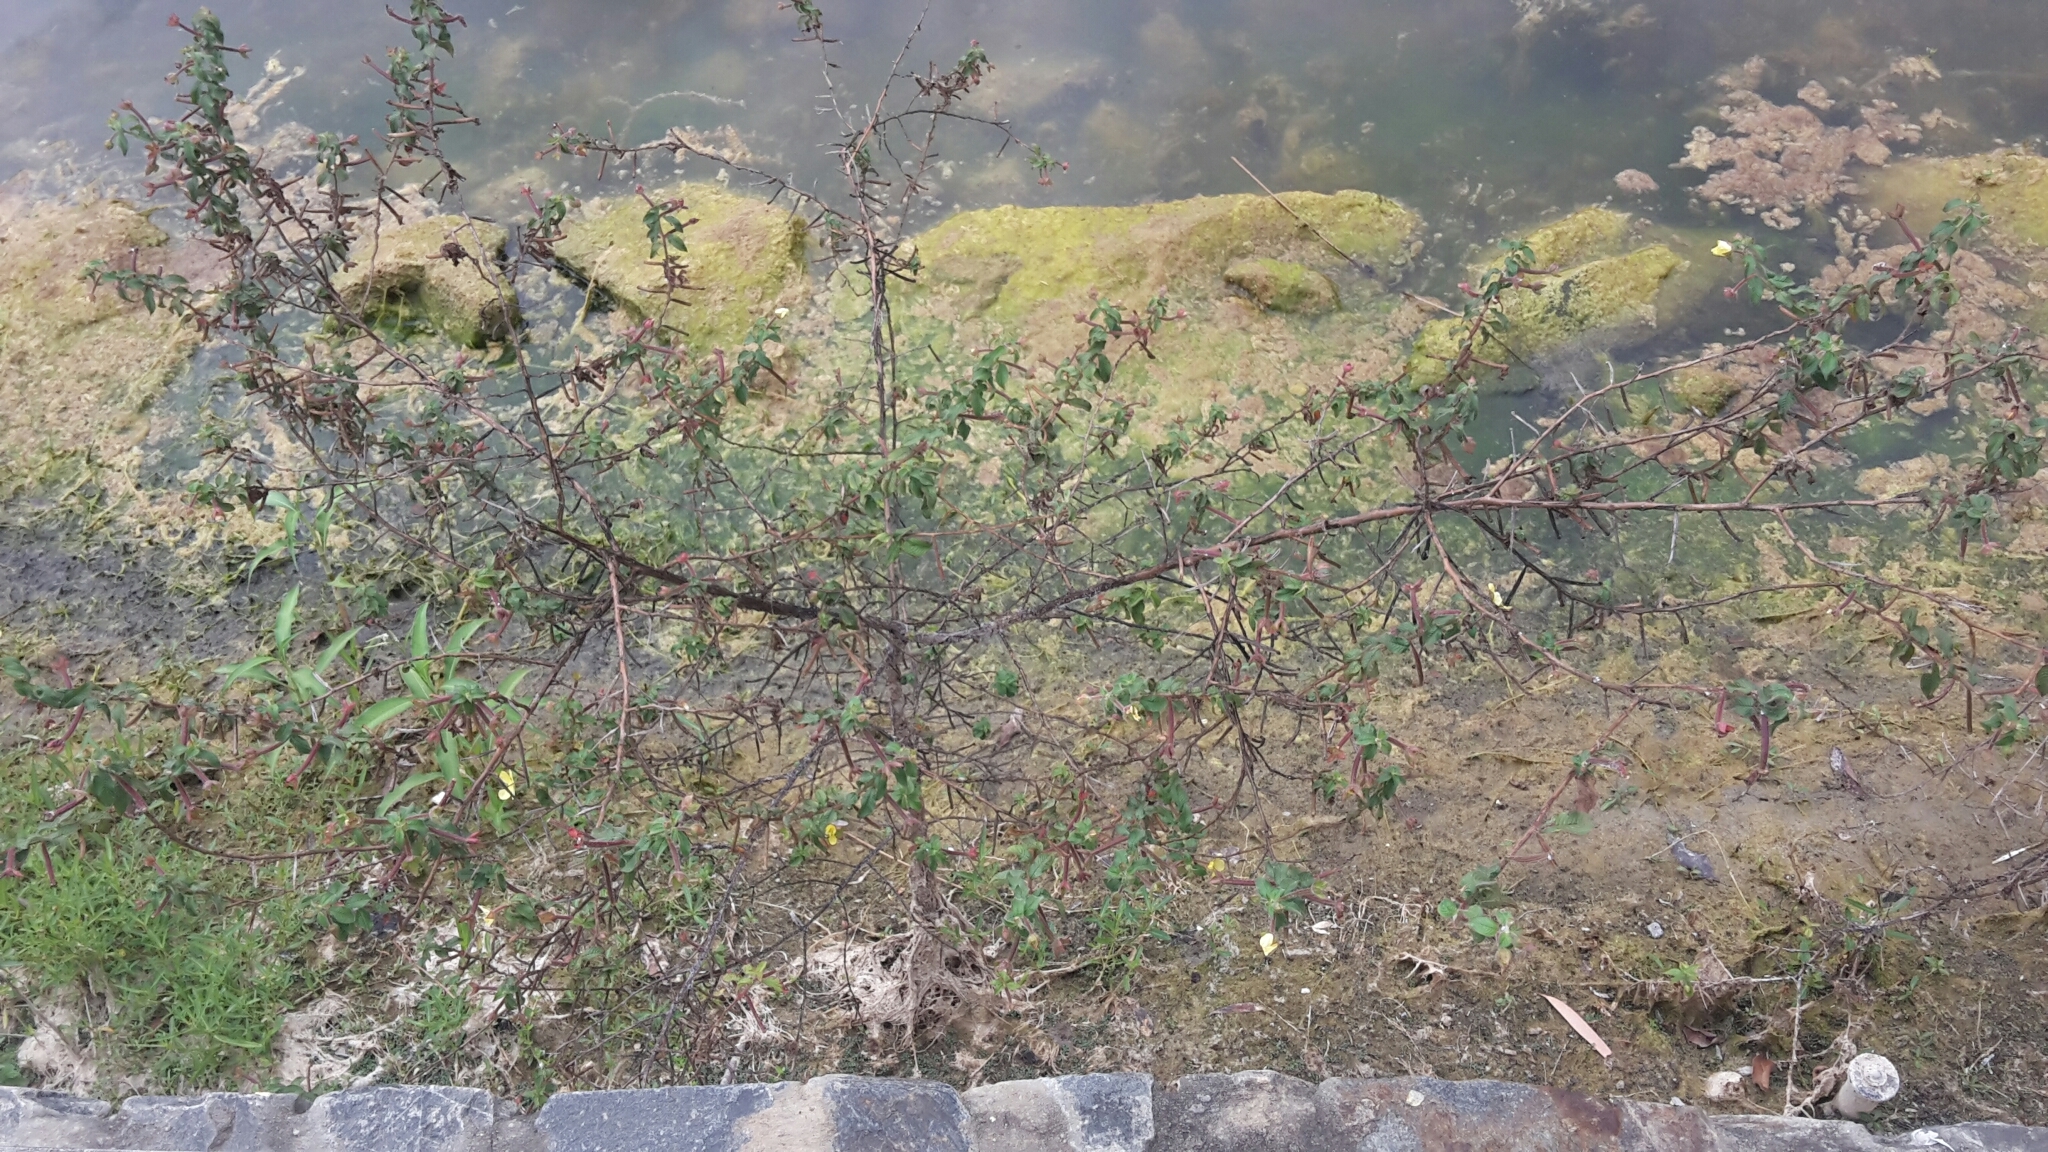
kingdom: Plantae
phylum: Tracheophyta
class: Magnoliopsida
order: Myrtales
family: Onagraceae
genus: Ludwigia
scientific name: Ludwigia octovalvis
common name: Water-primrose
